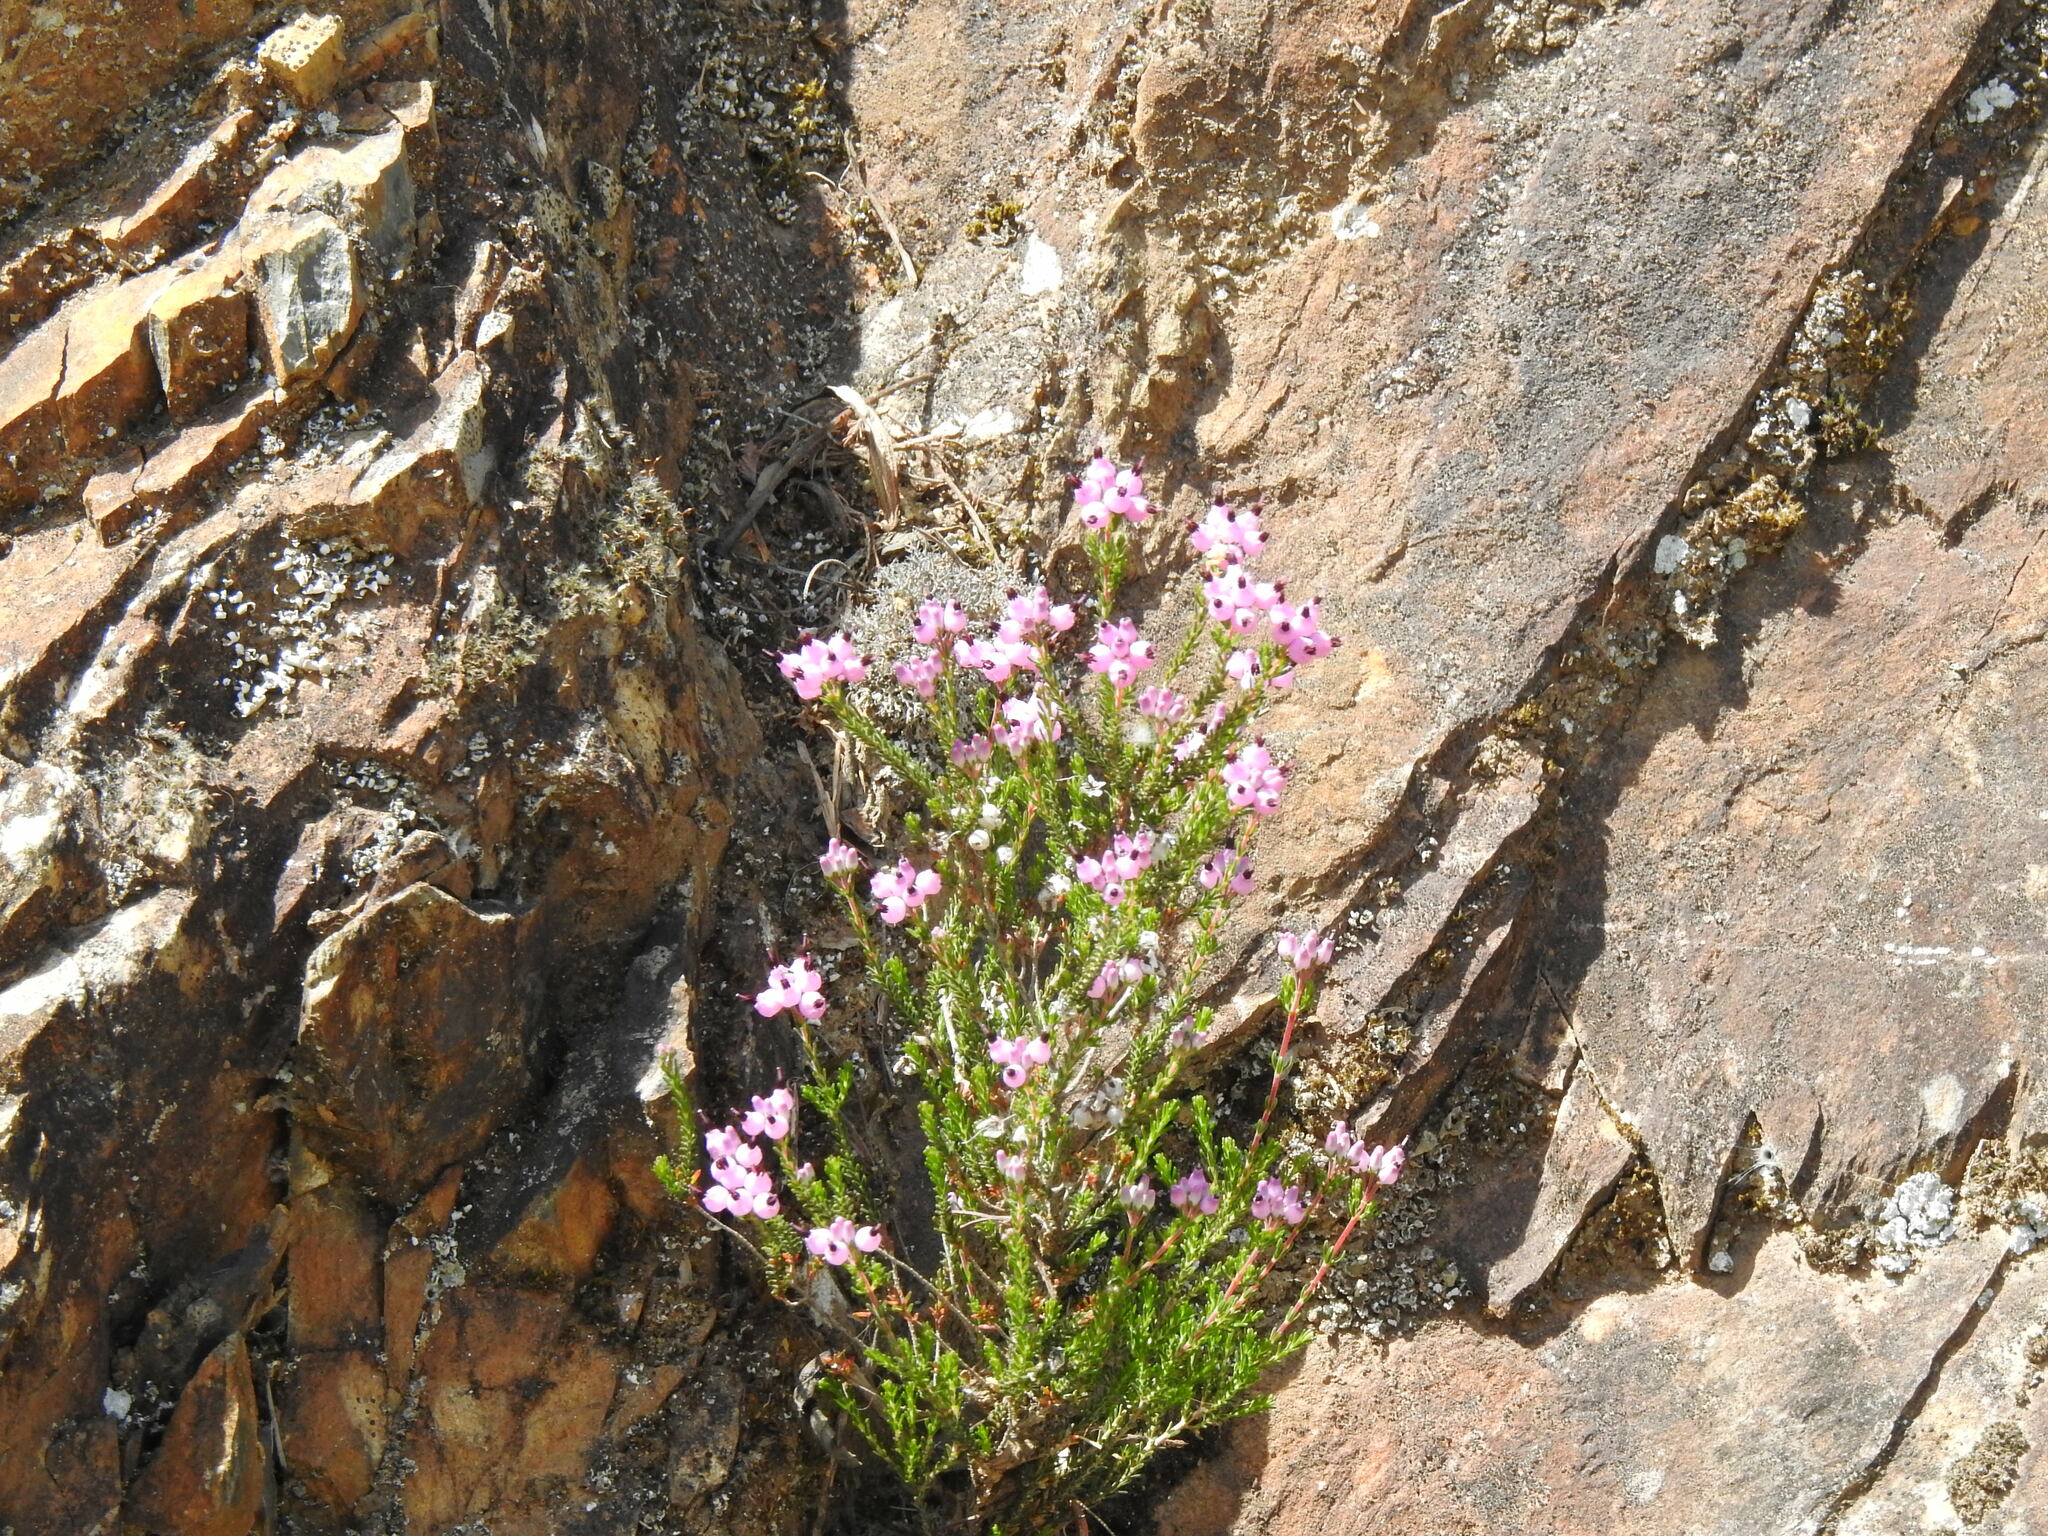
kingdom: Plantae
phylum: Tracheophyta
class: Magnoliopsida
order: Ericales
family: Ericaceae
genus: Erica
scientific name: Erica umbellata
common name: Dwarf spanish heath
